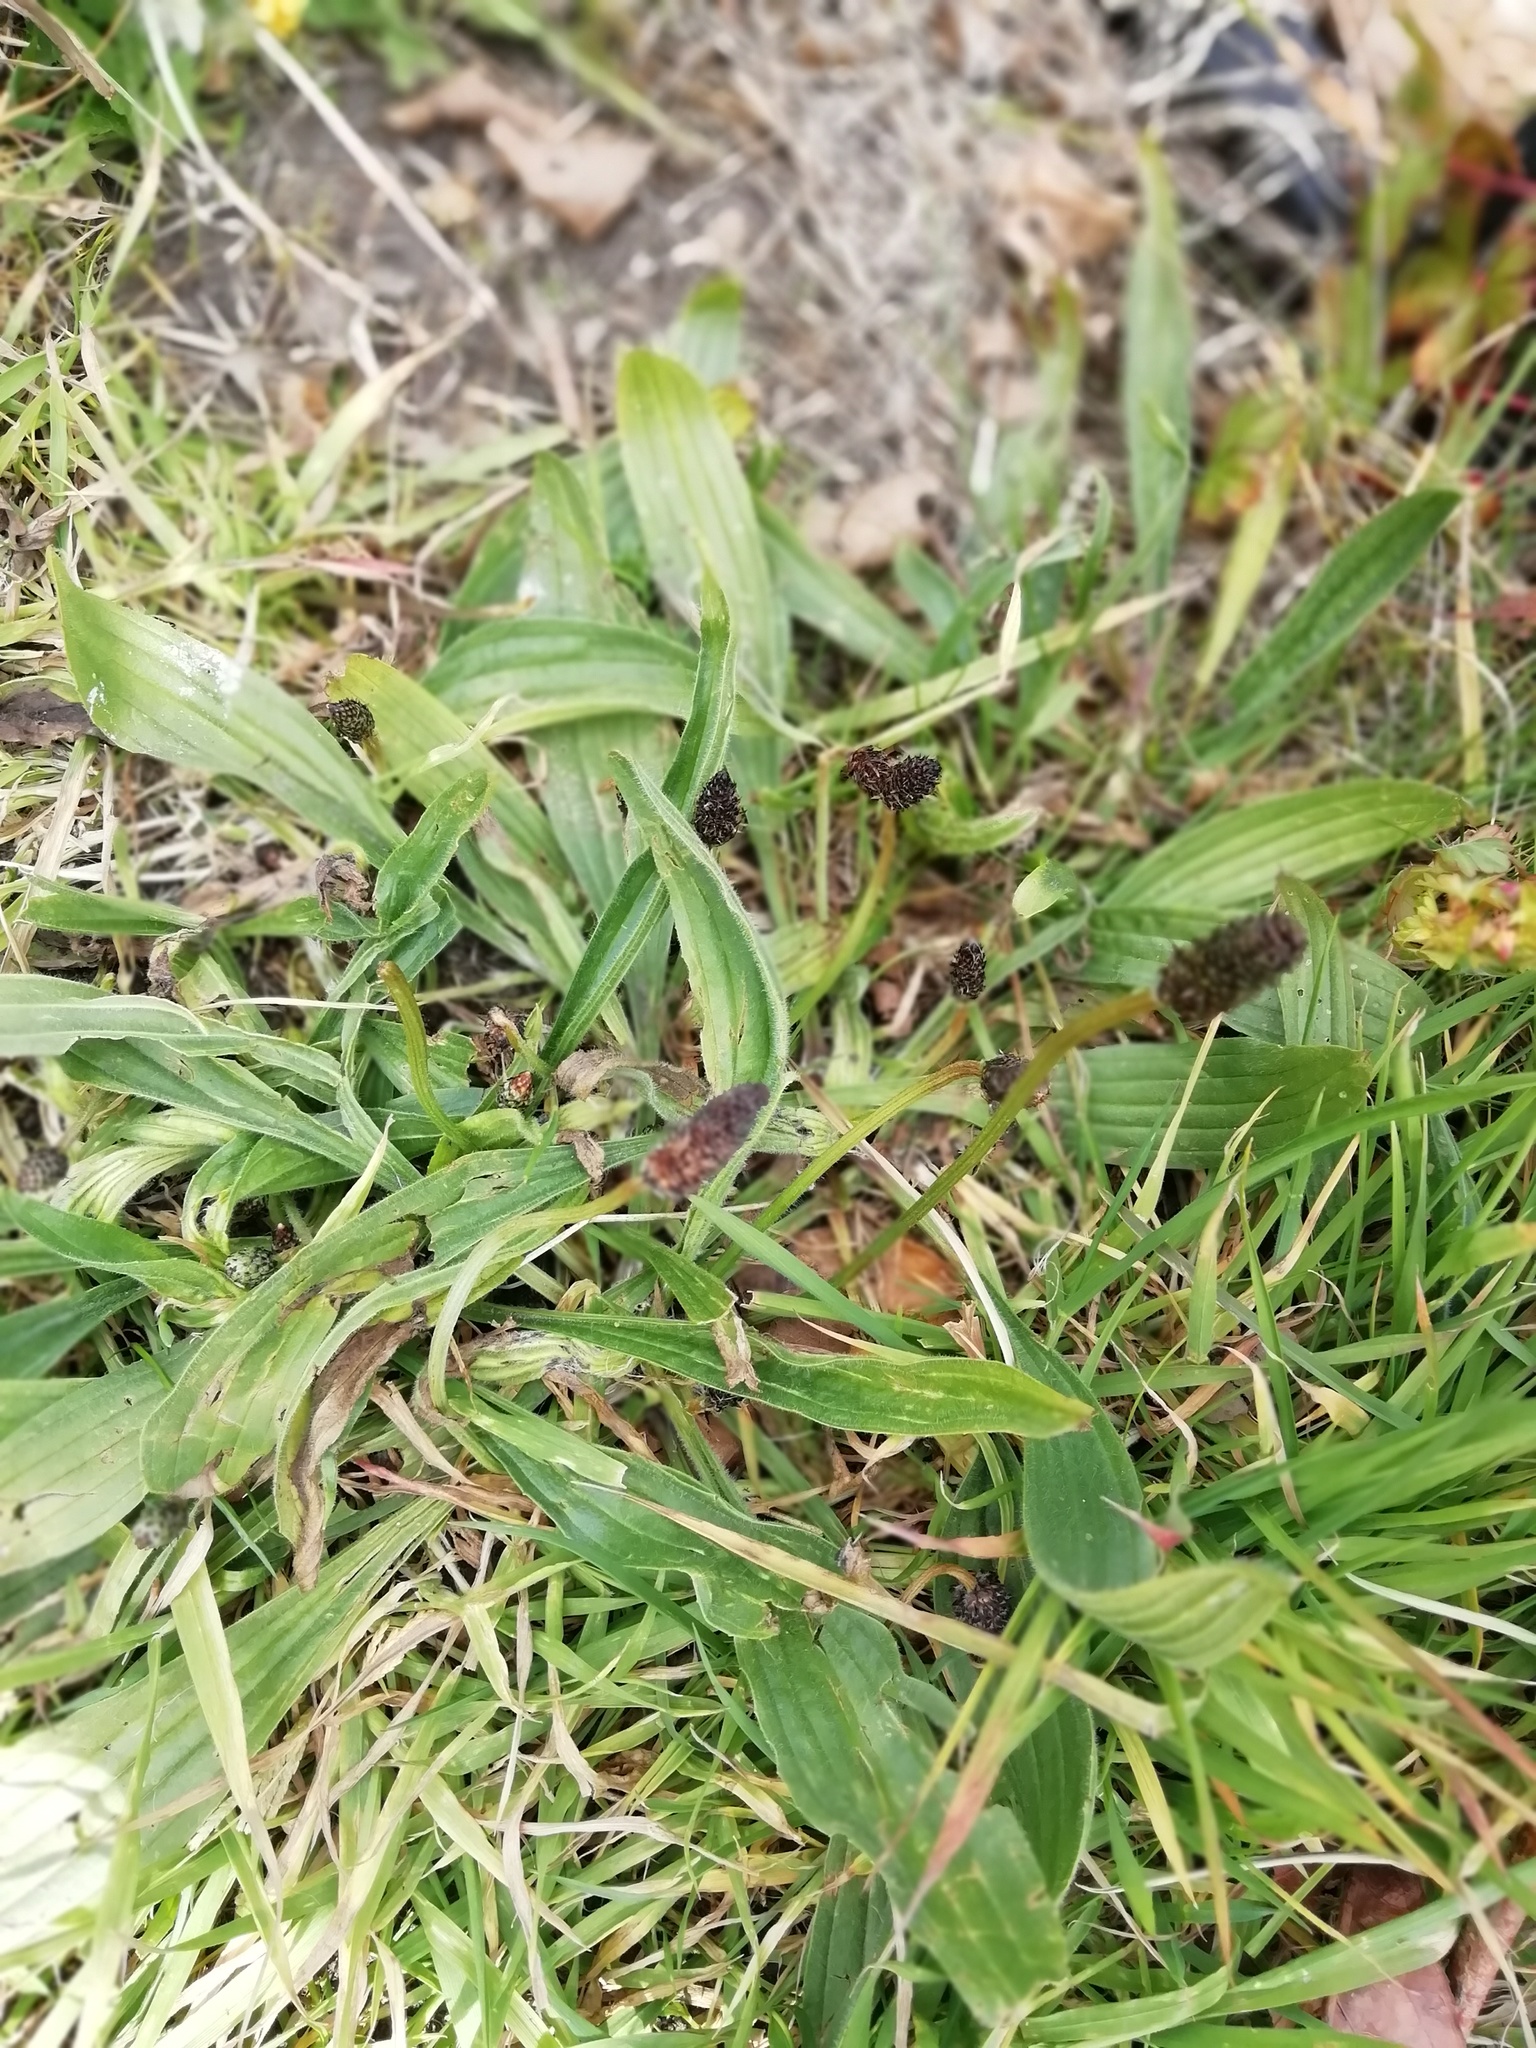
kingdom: Plantae
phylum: Tracheophyta
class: Magnoliopsida
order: Lamiales
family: Plantaginaceae
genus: Plantago
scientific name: Plantago lanceolata
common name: Ribwort plantain
